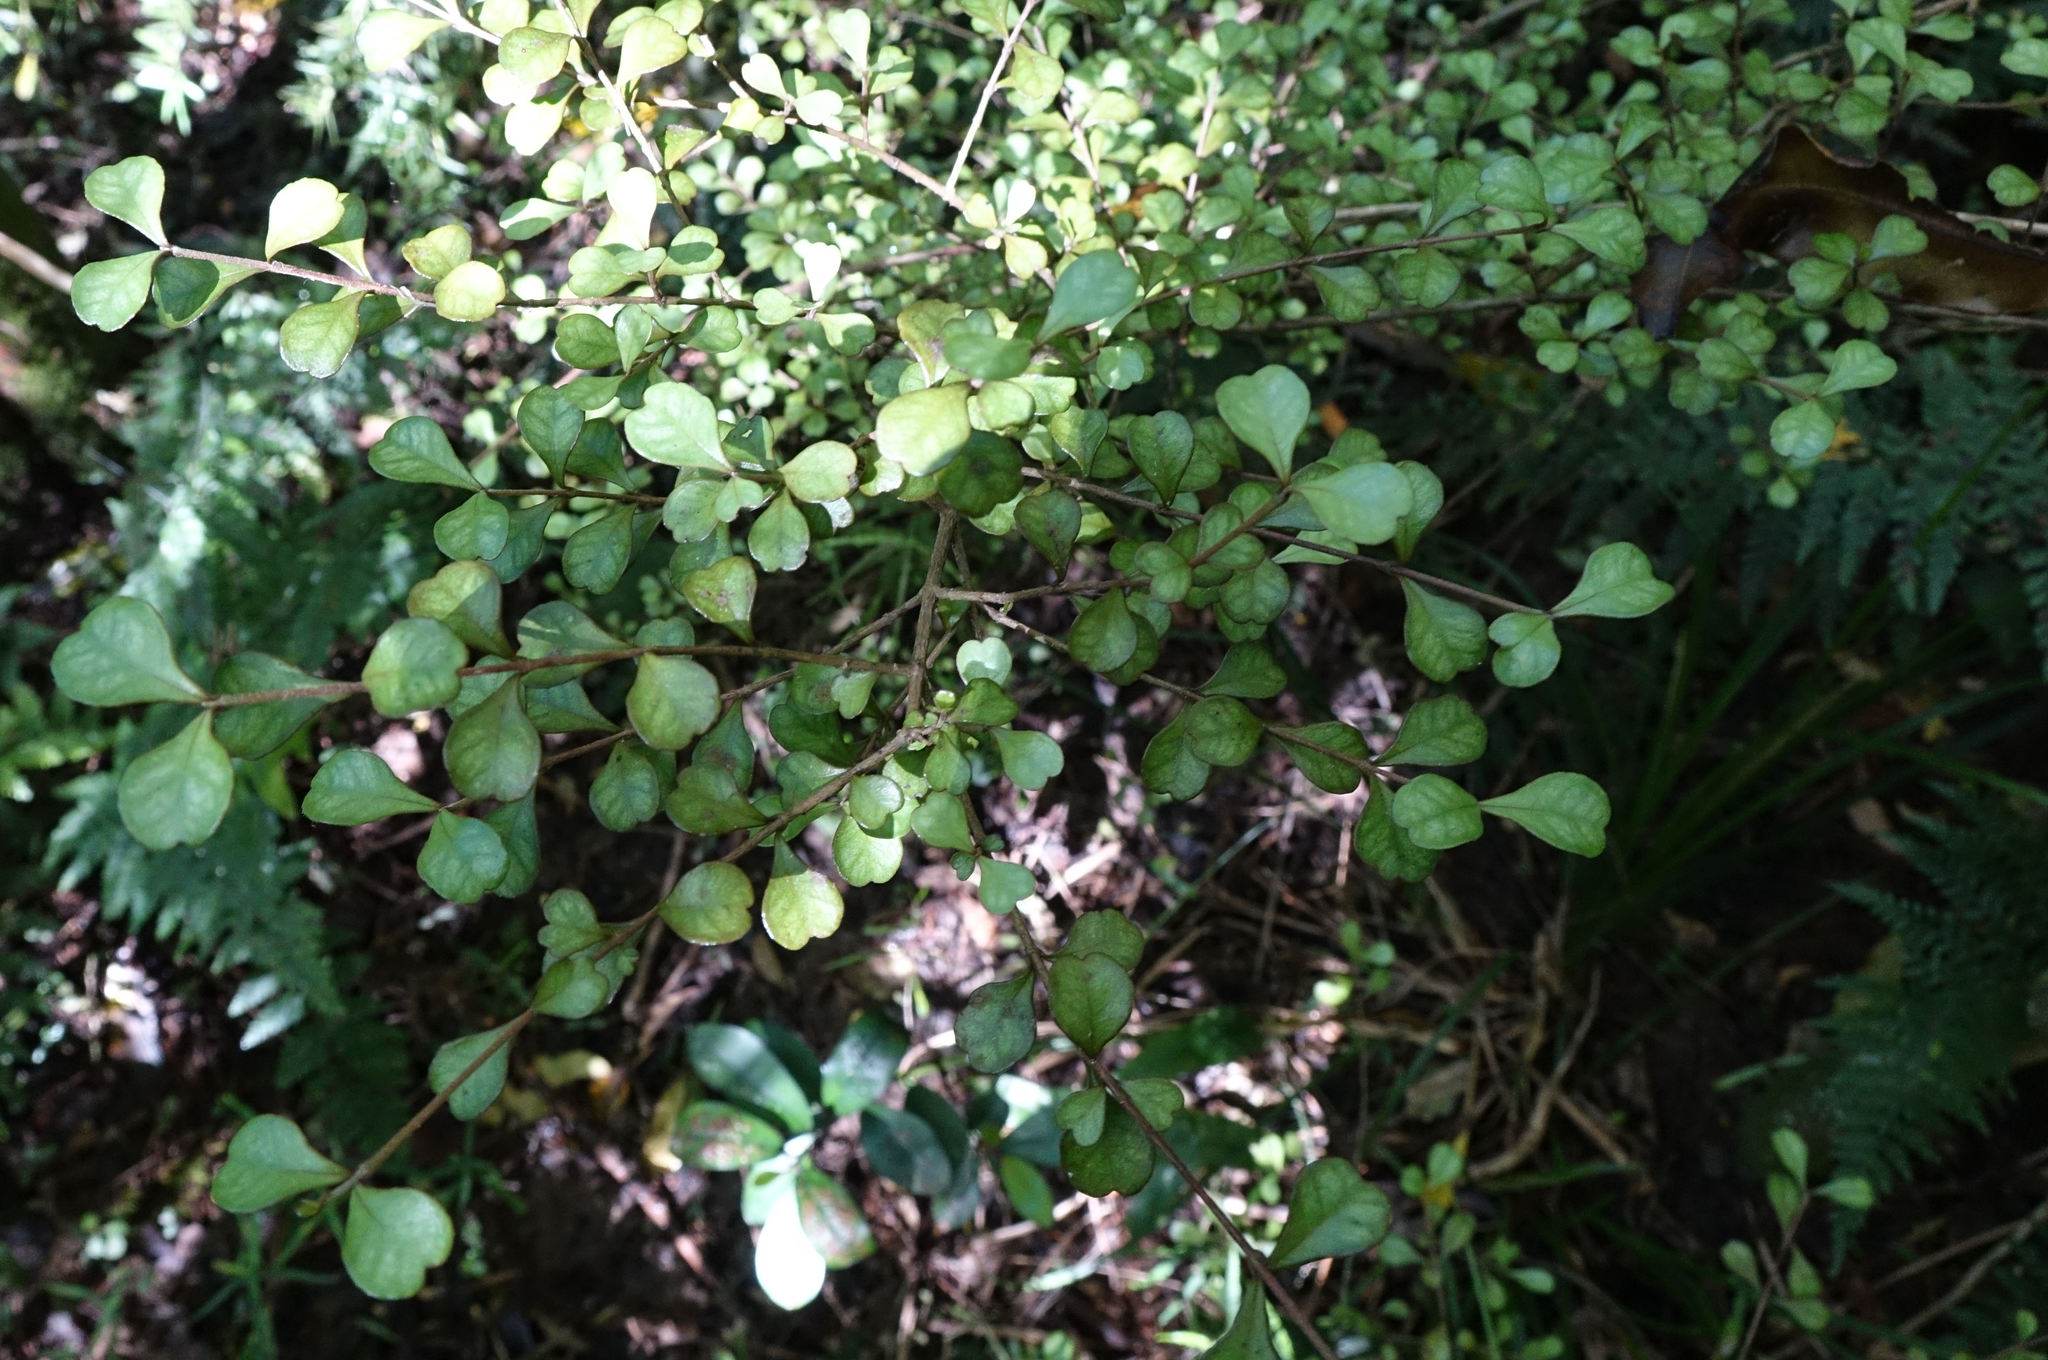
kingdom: Plantae
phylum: Tracheophyta
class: Magnoliopsida
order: Myrtales
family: Myrtaceae
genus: Lophomyrtus
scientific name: Lophomyrtus obcordata
